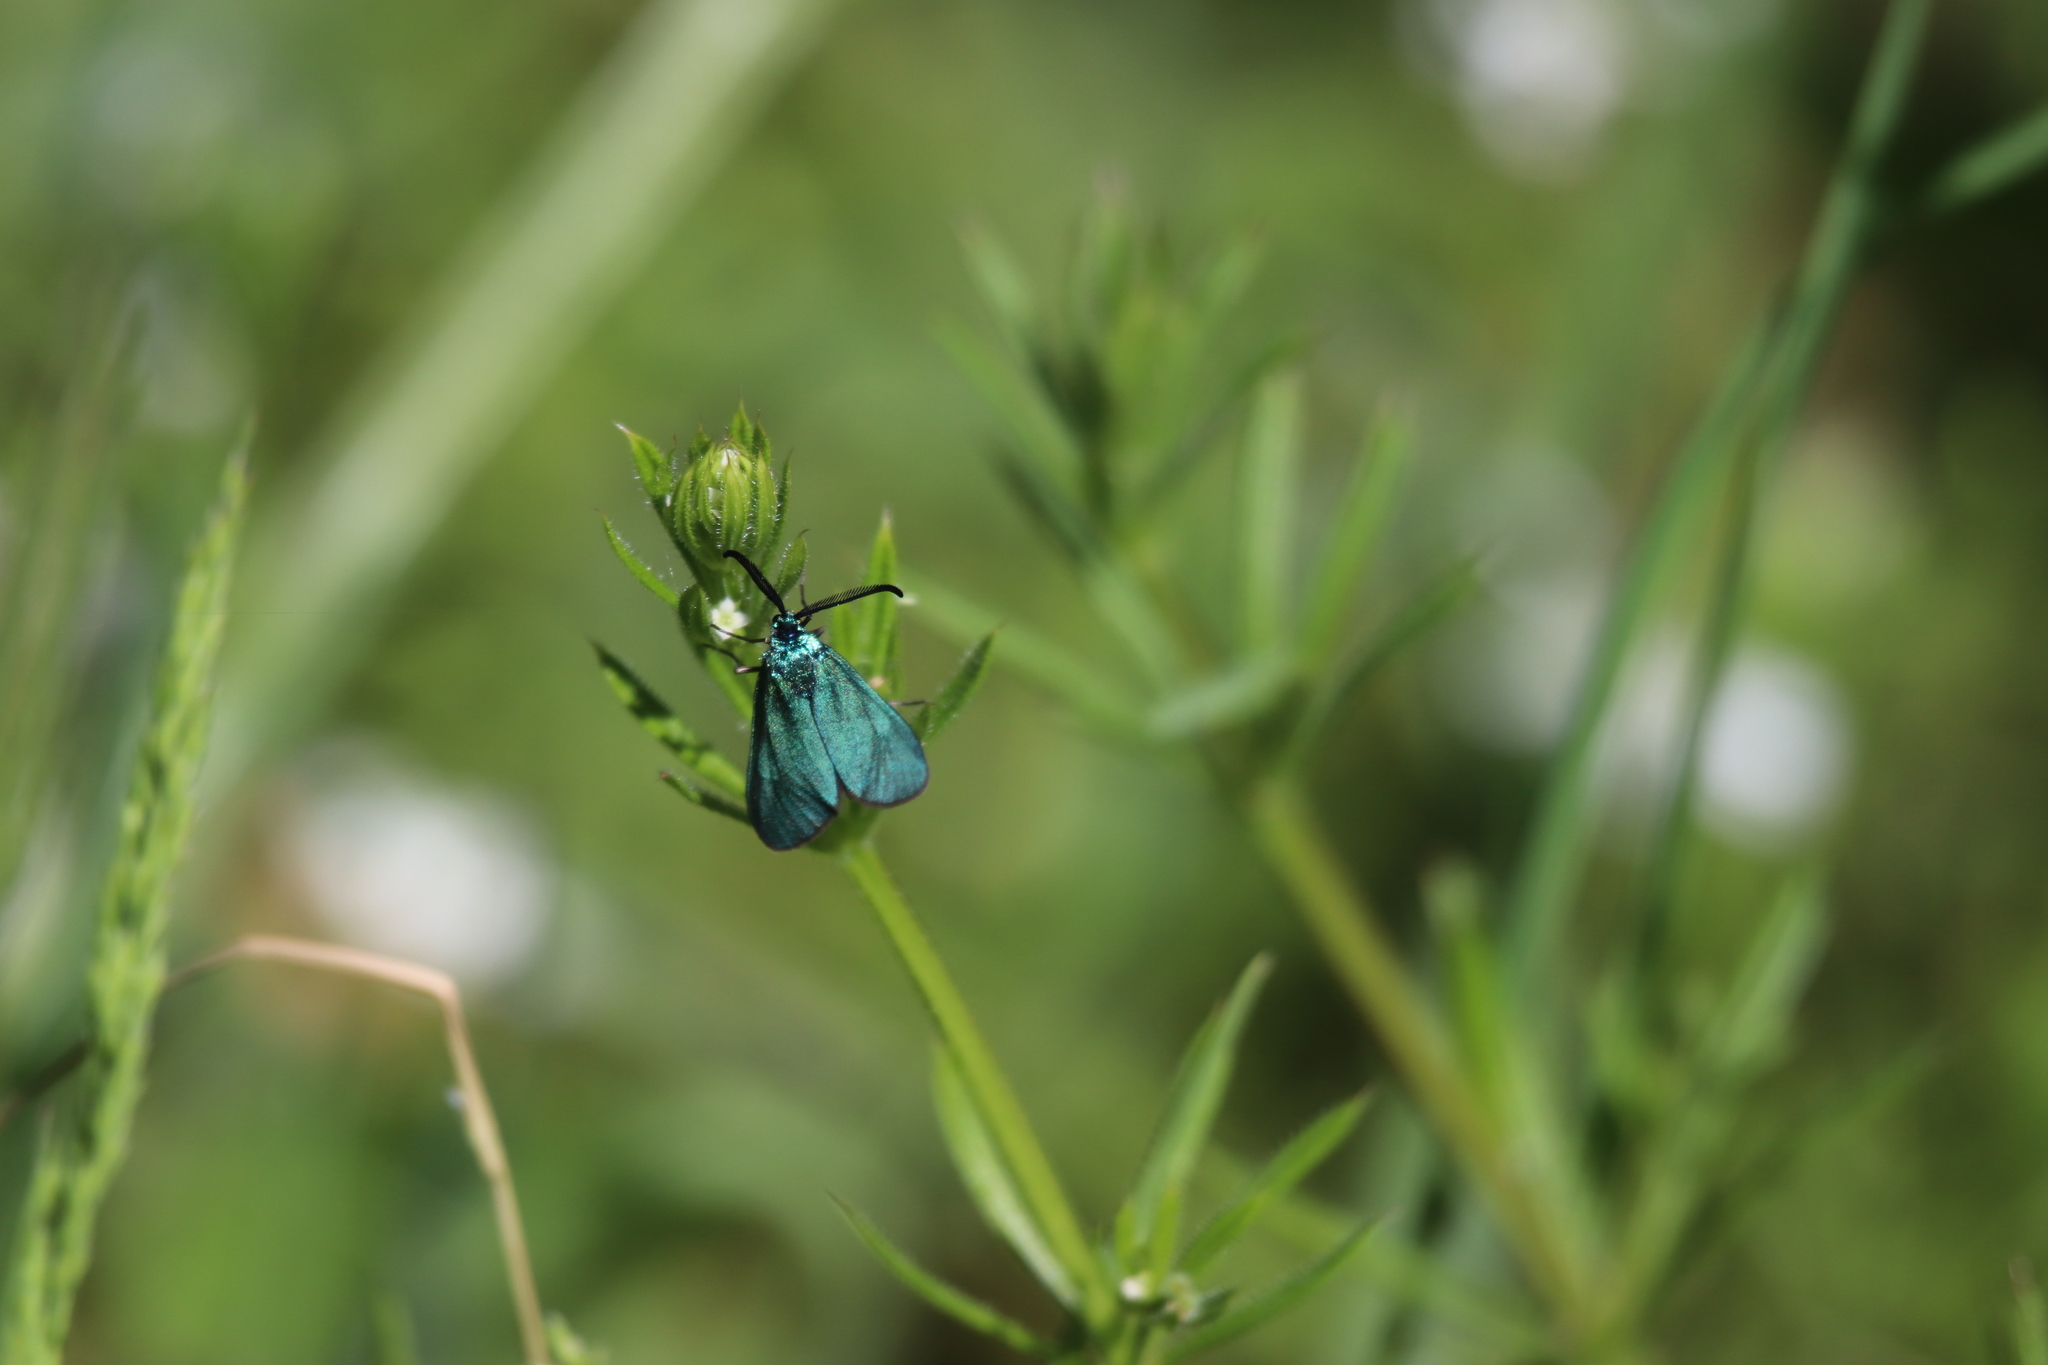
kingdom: Animalia
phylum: Arthropoda
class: Insecta
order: Lepidoptera
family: Zygaenidae
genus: Adscita
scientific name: Adscita
